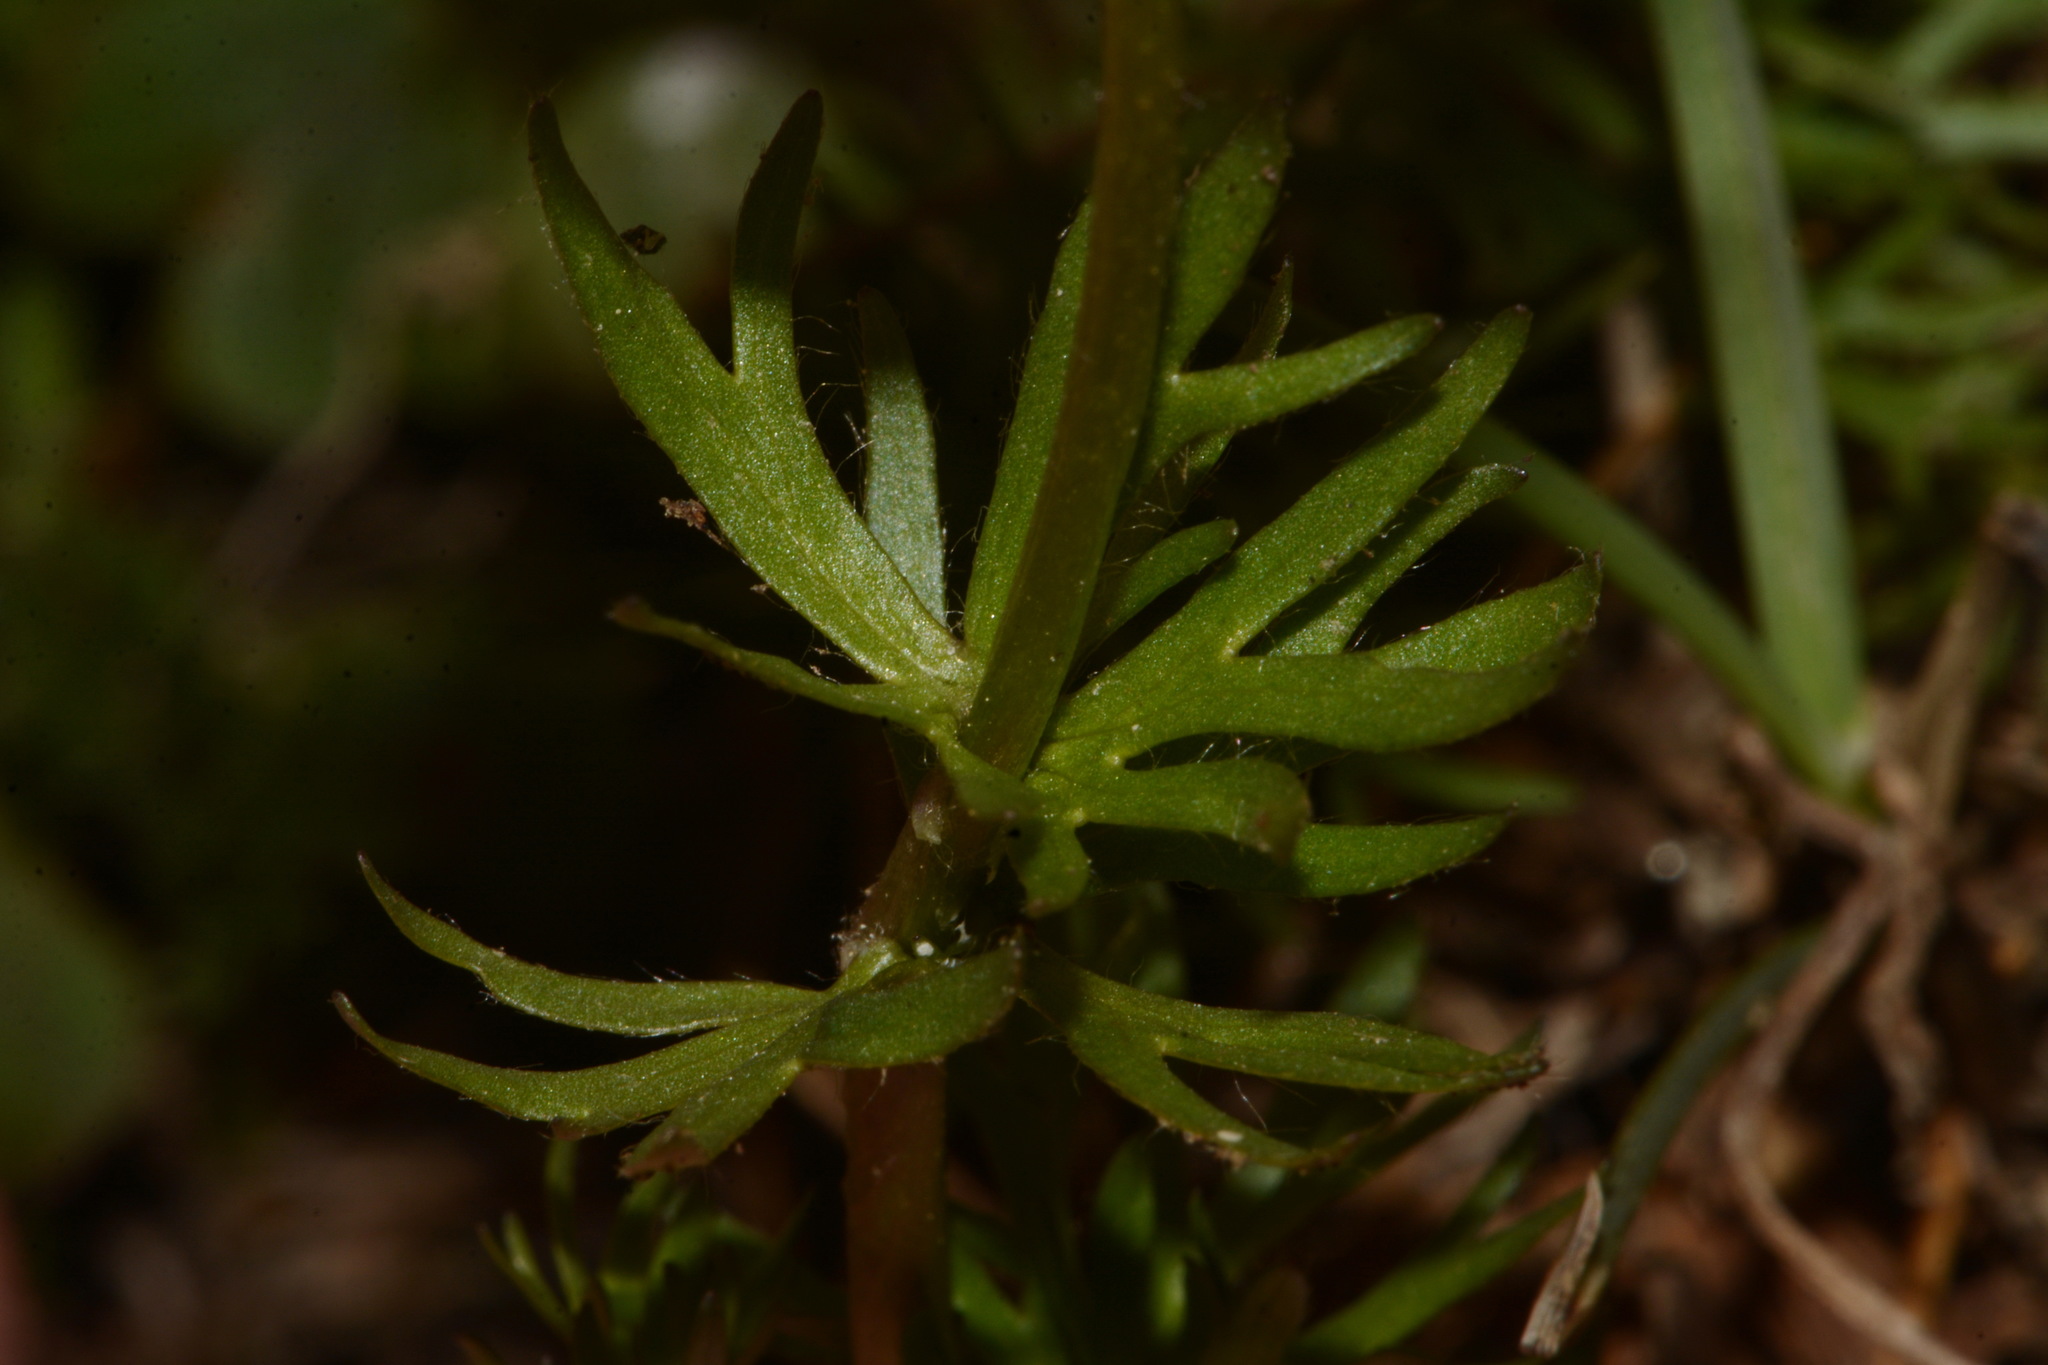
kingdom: Plantae
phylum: Tracheophyta
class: Magnoliopsida
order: Ranunculales
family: Ranunculaceae
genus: Ranunculus
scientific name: Ranunculus adoneus
